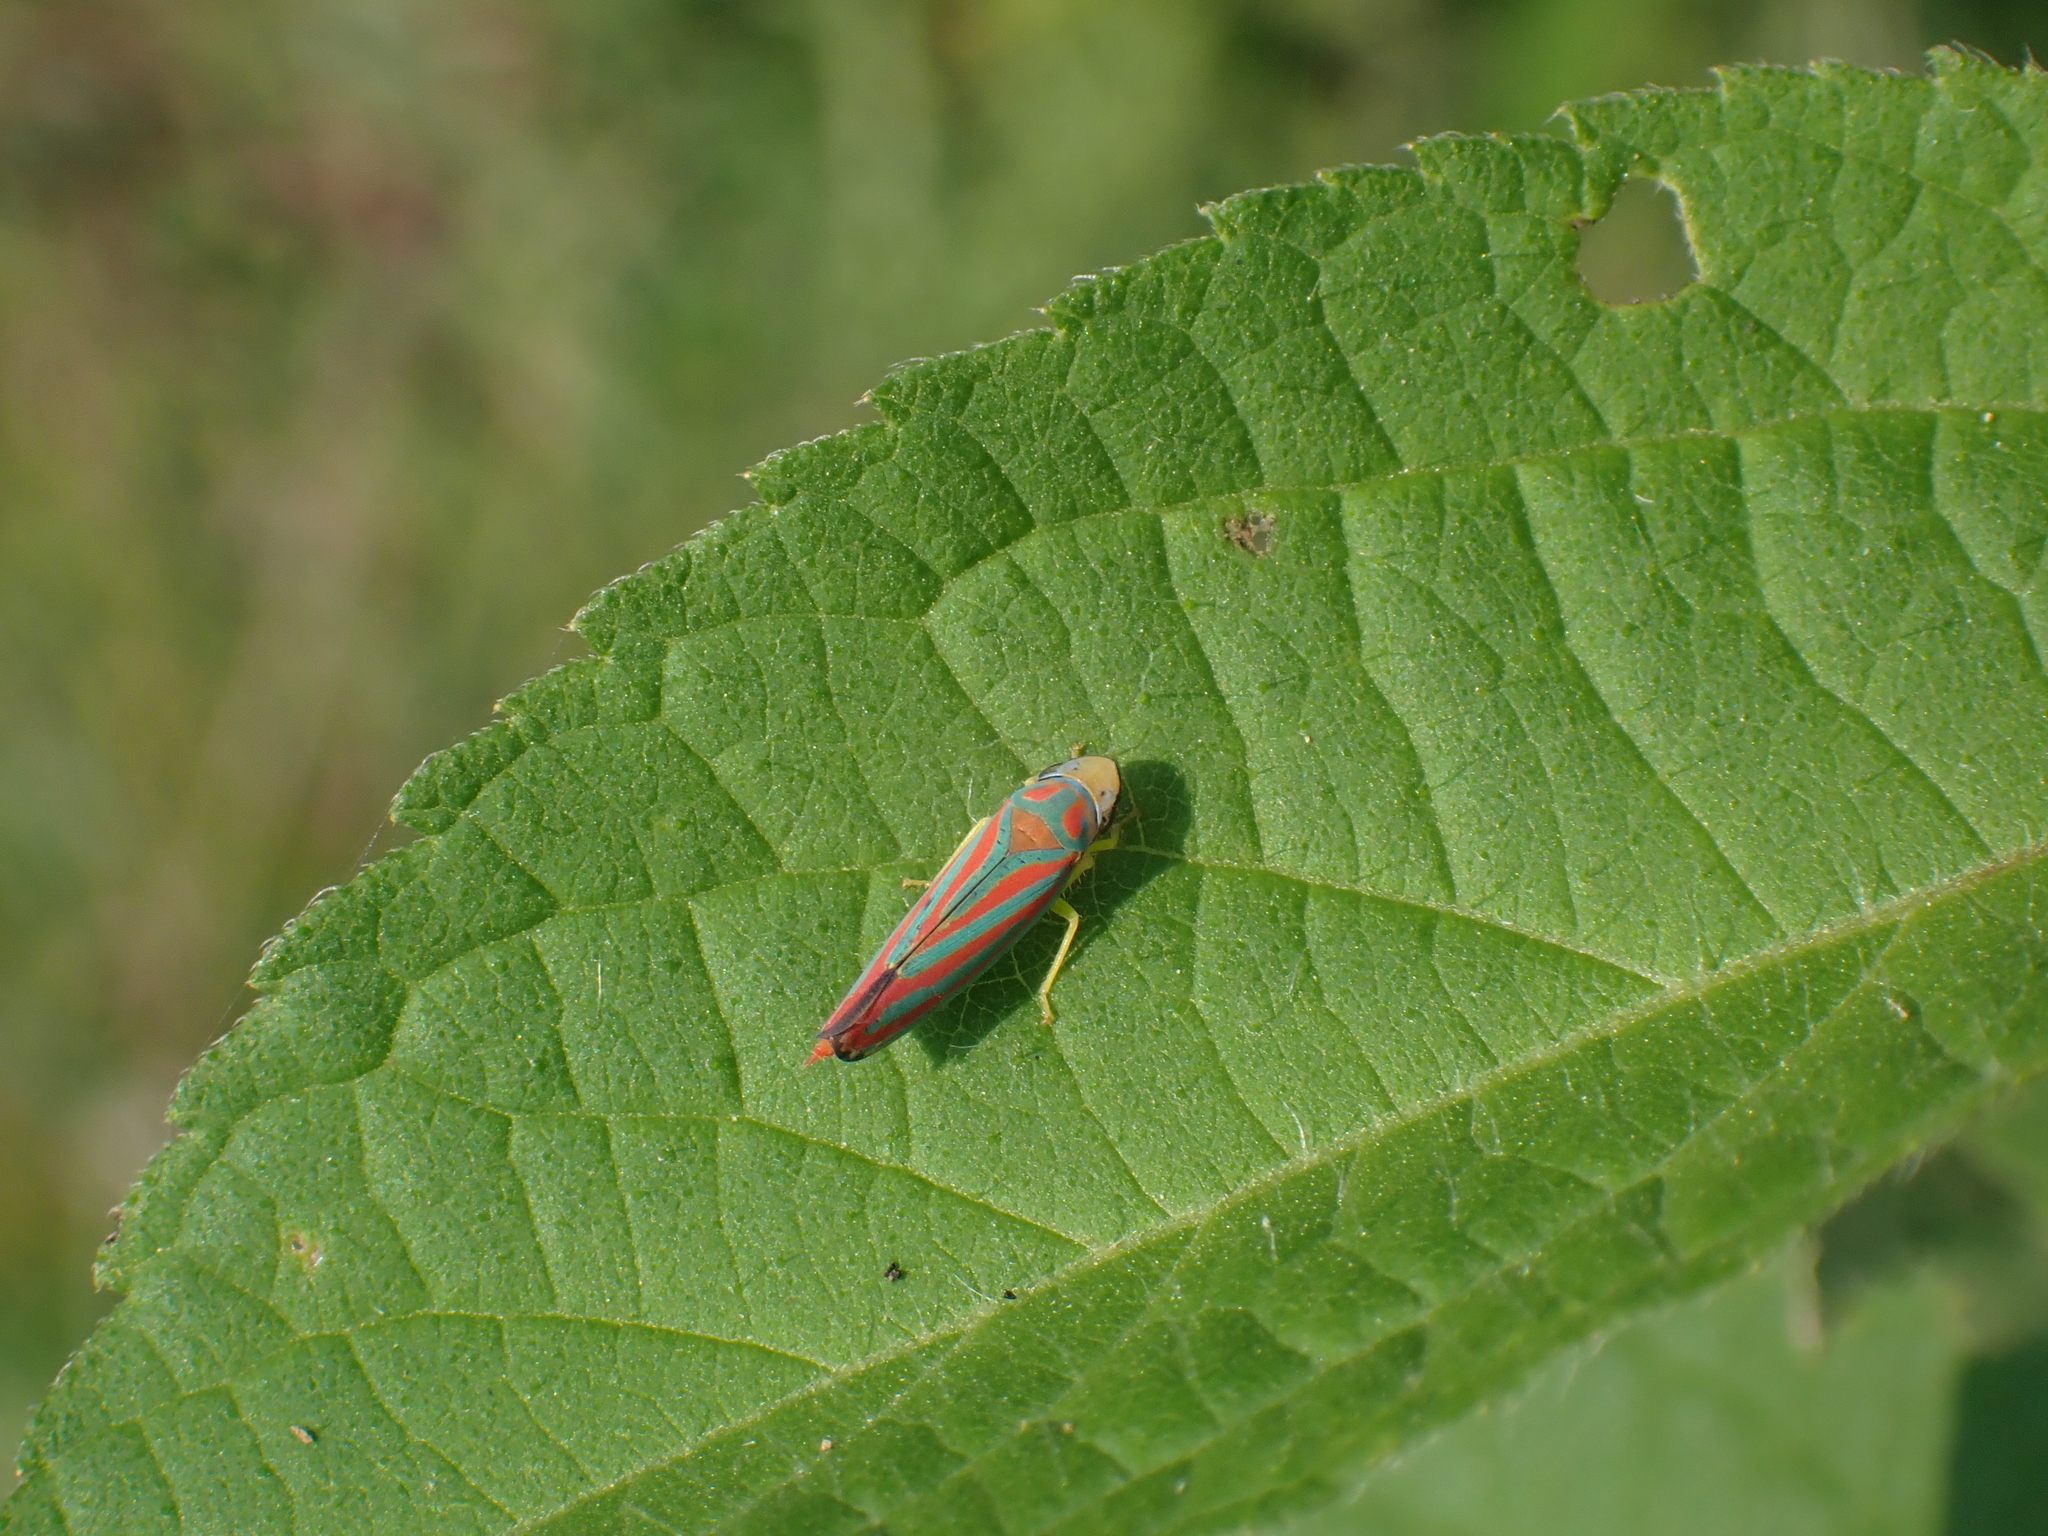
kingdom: Animalia
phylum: Arthropoda
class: Insecta
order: Hemiptera
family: Cicadellidae
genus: Graphocephala
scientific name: Graphocephala coccinea
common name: Candy-striped leafhopper
